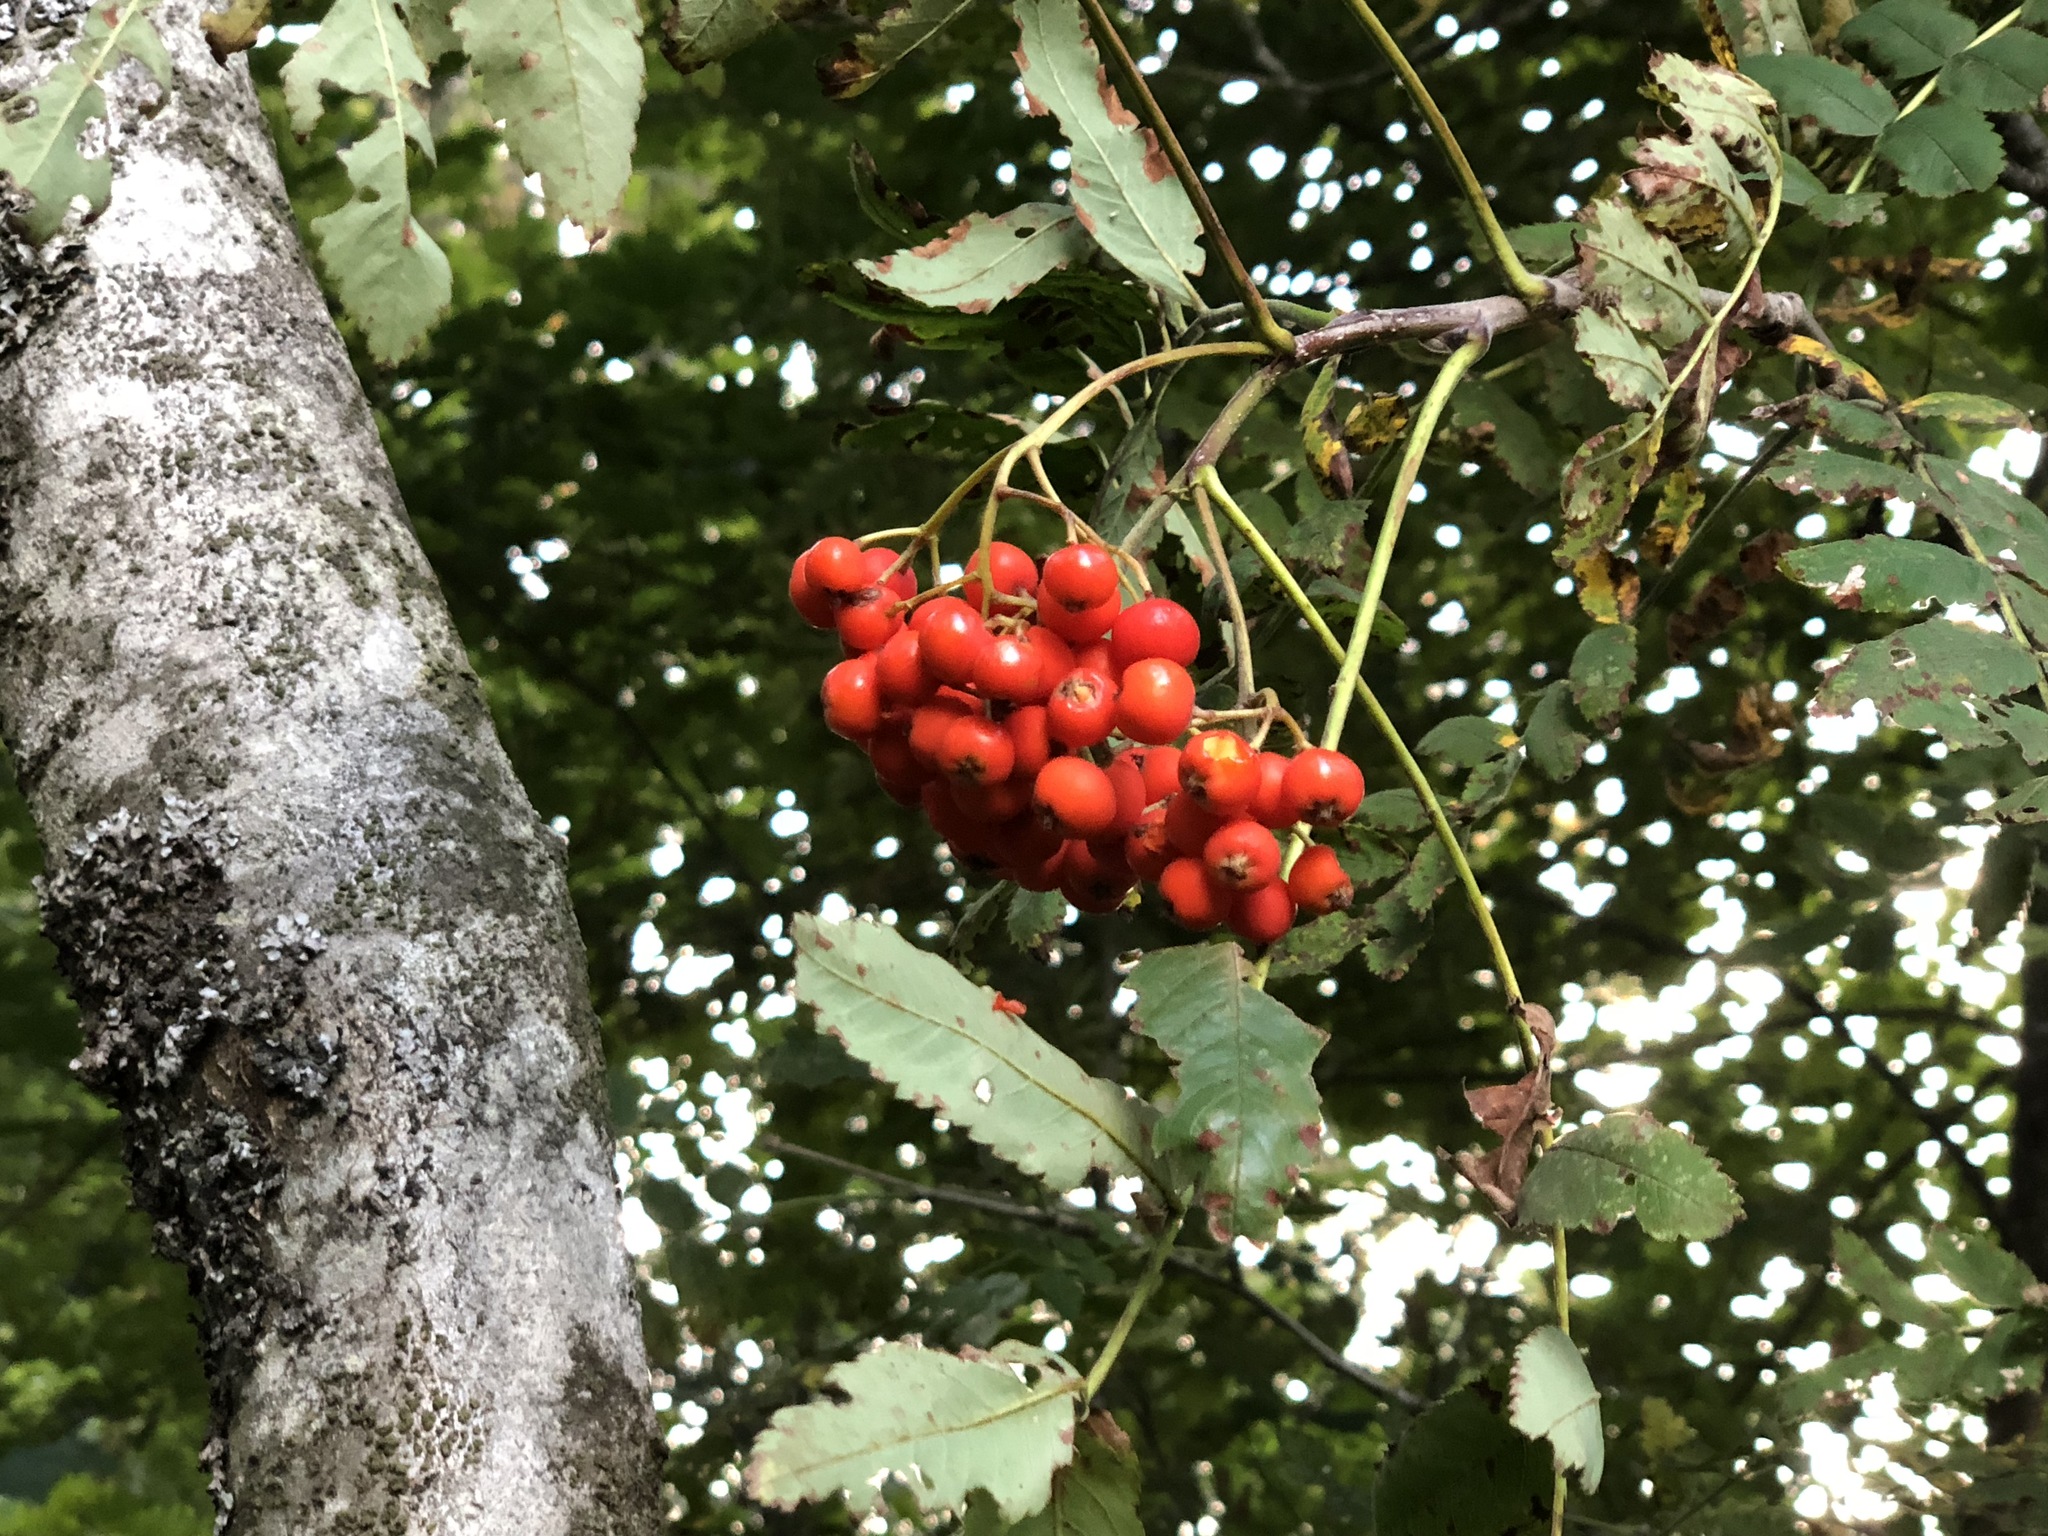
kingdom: Plantae
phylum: Tracheophyta
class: Magnoliopsida
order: Rosales
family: Rosaceae
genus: Sorbus
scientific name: Sorbus aucuparia
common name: Rowan
